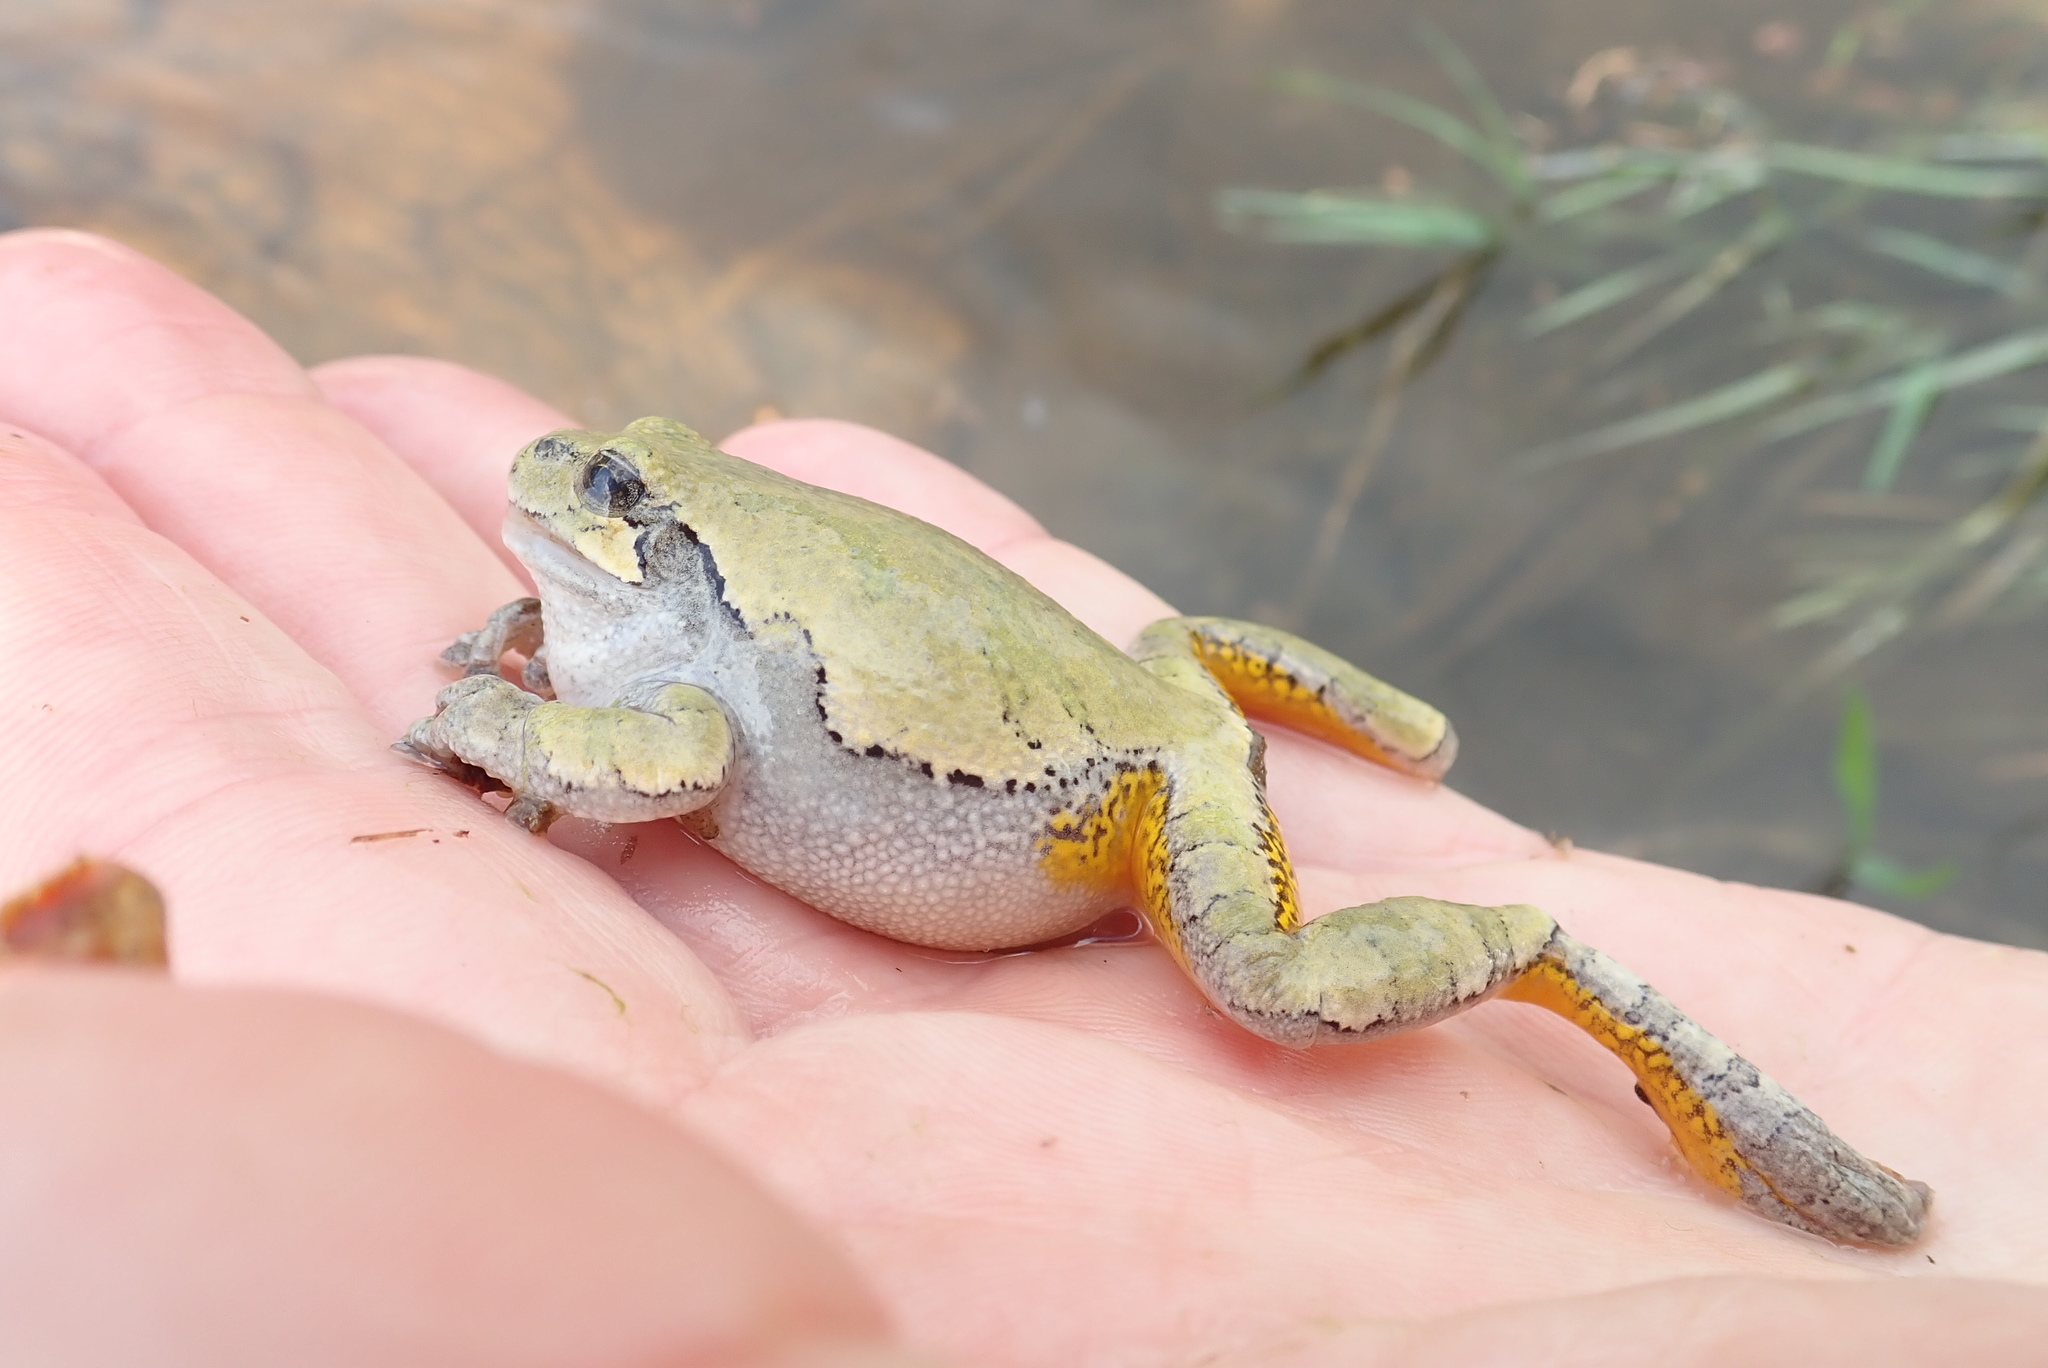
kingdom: Animalia
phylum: Chordata
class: Amphibia
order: Anura
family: Hylidae
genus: Dryophytes
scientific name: Dryophytes versicolor
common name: Gray treefrog
